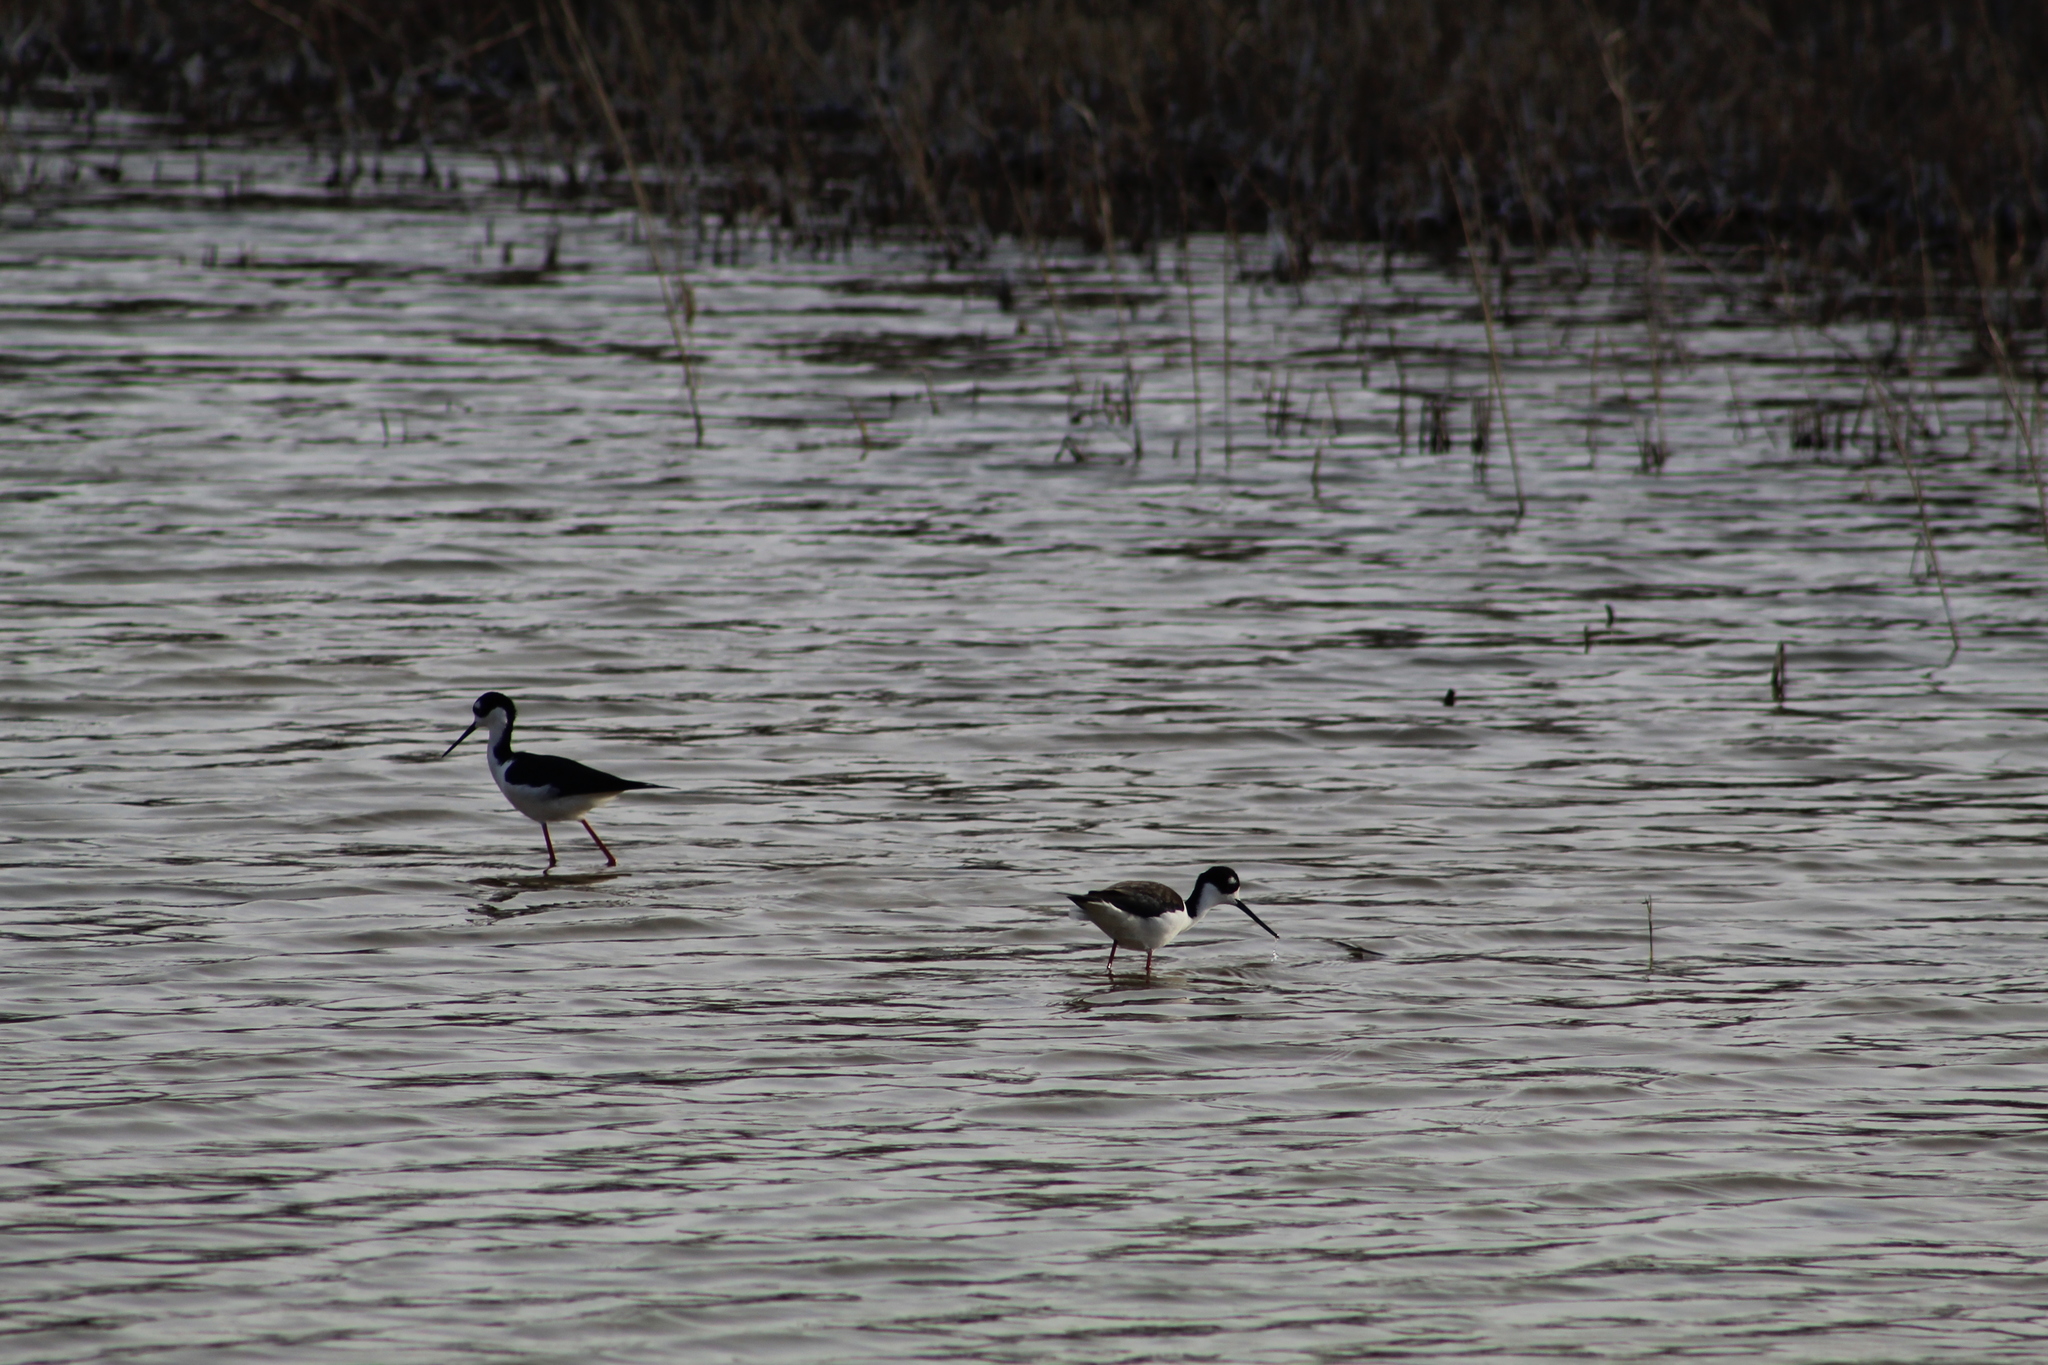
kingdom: Animalia
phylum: Chordata
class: Aves
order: Charadriiformes
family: Recurvirostridae
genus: Himantopus
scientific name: Himantopus mexicanus
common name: Black-necked stilt
